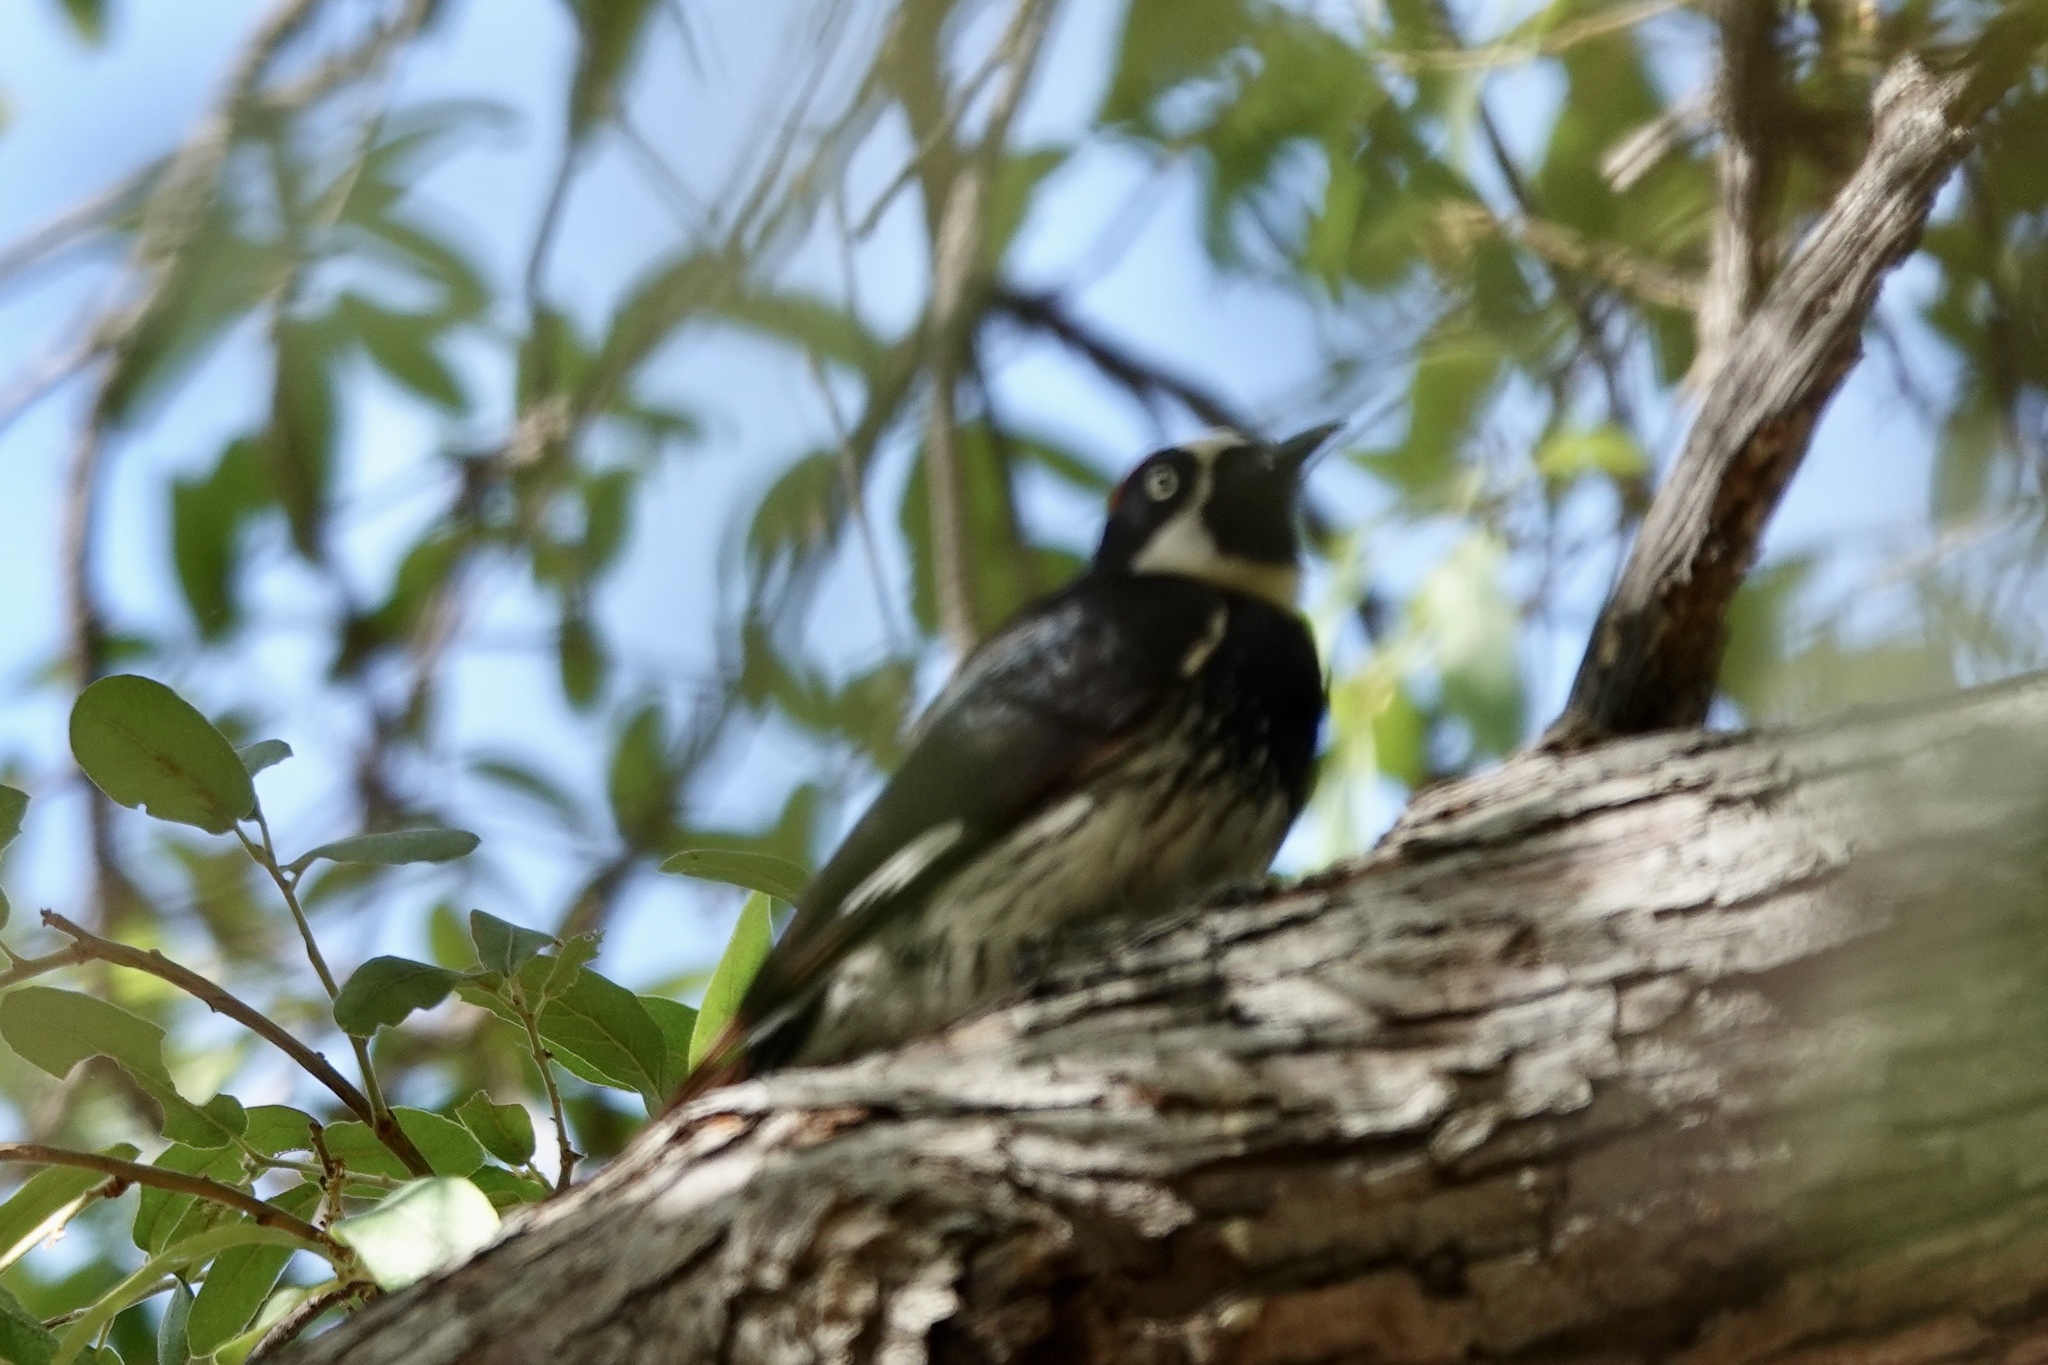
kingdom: Animalia
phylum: Chordata
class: Aves
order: Piciformes
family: Picidae
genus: Melanerpes
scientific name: Melanerpes formicivorus
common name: Acorn woodpecker
